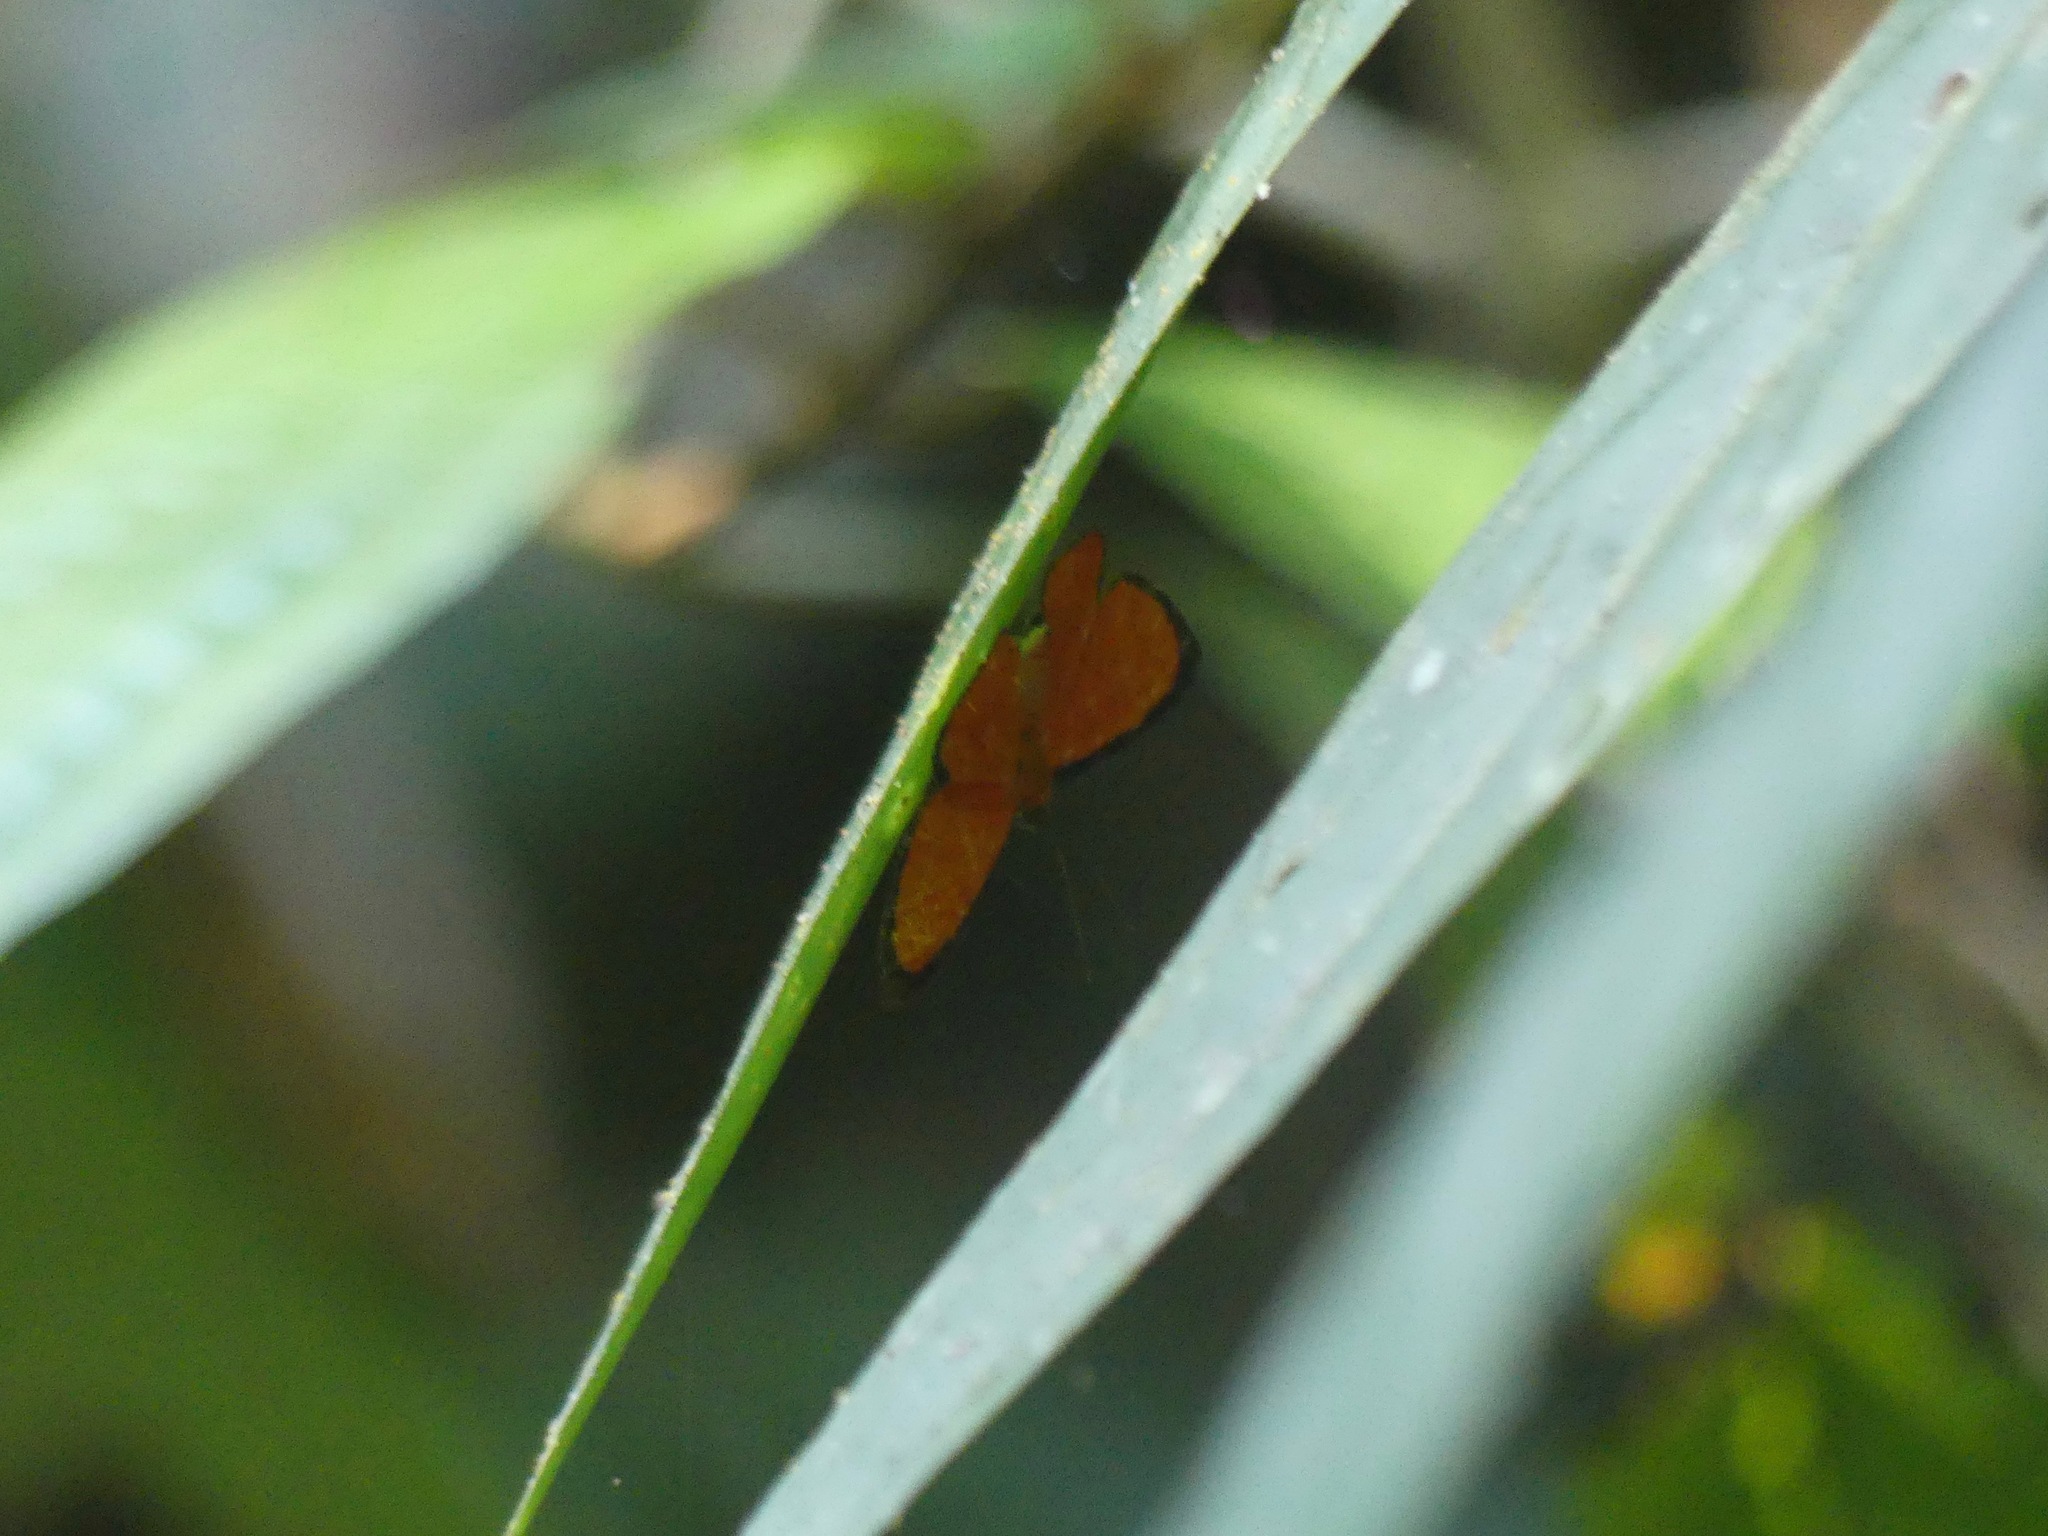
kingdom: Animalia
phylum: Arthropoda
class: Insecta
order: Lepidoptera
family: Lycaenidae
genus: Mesene
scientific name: Mesene simplex
